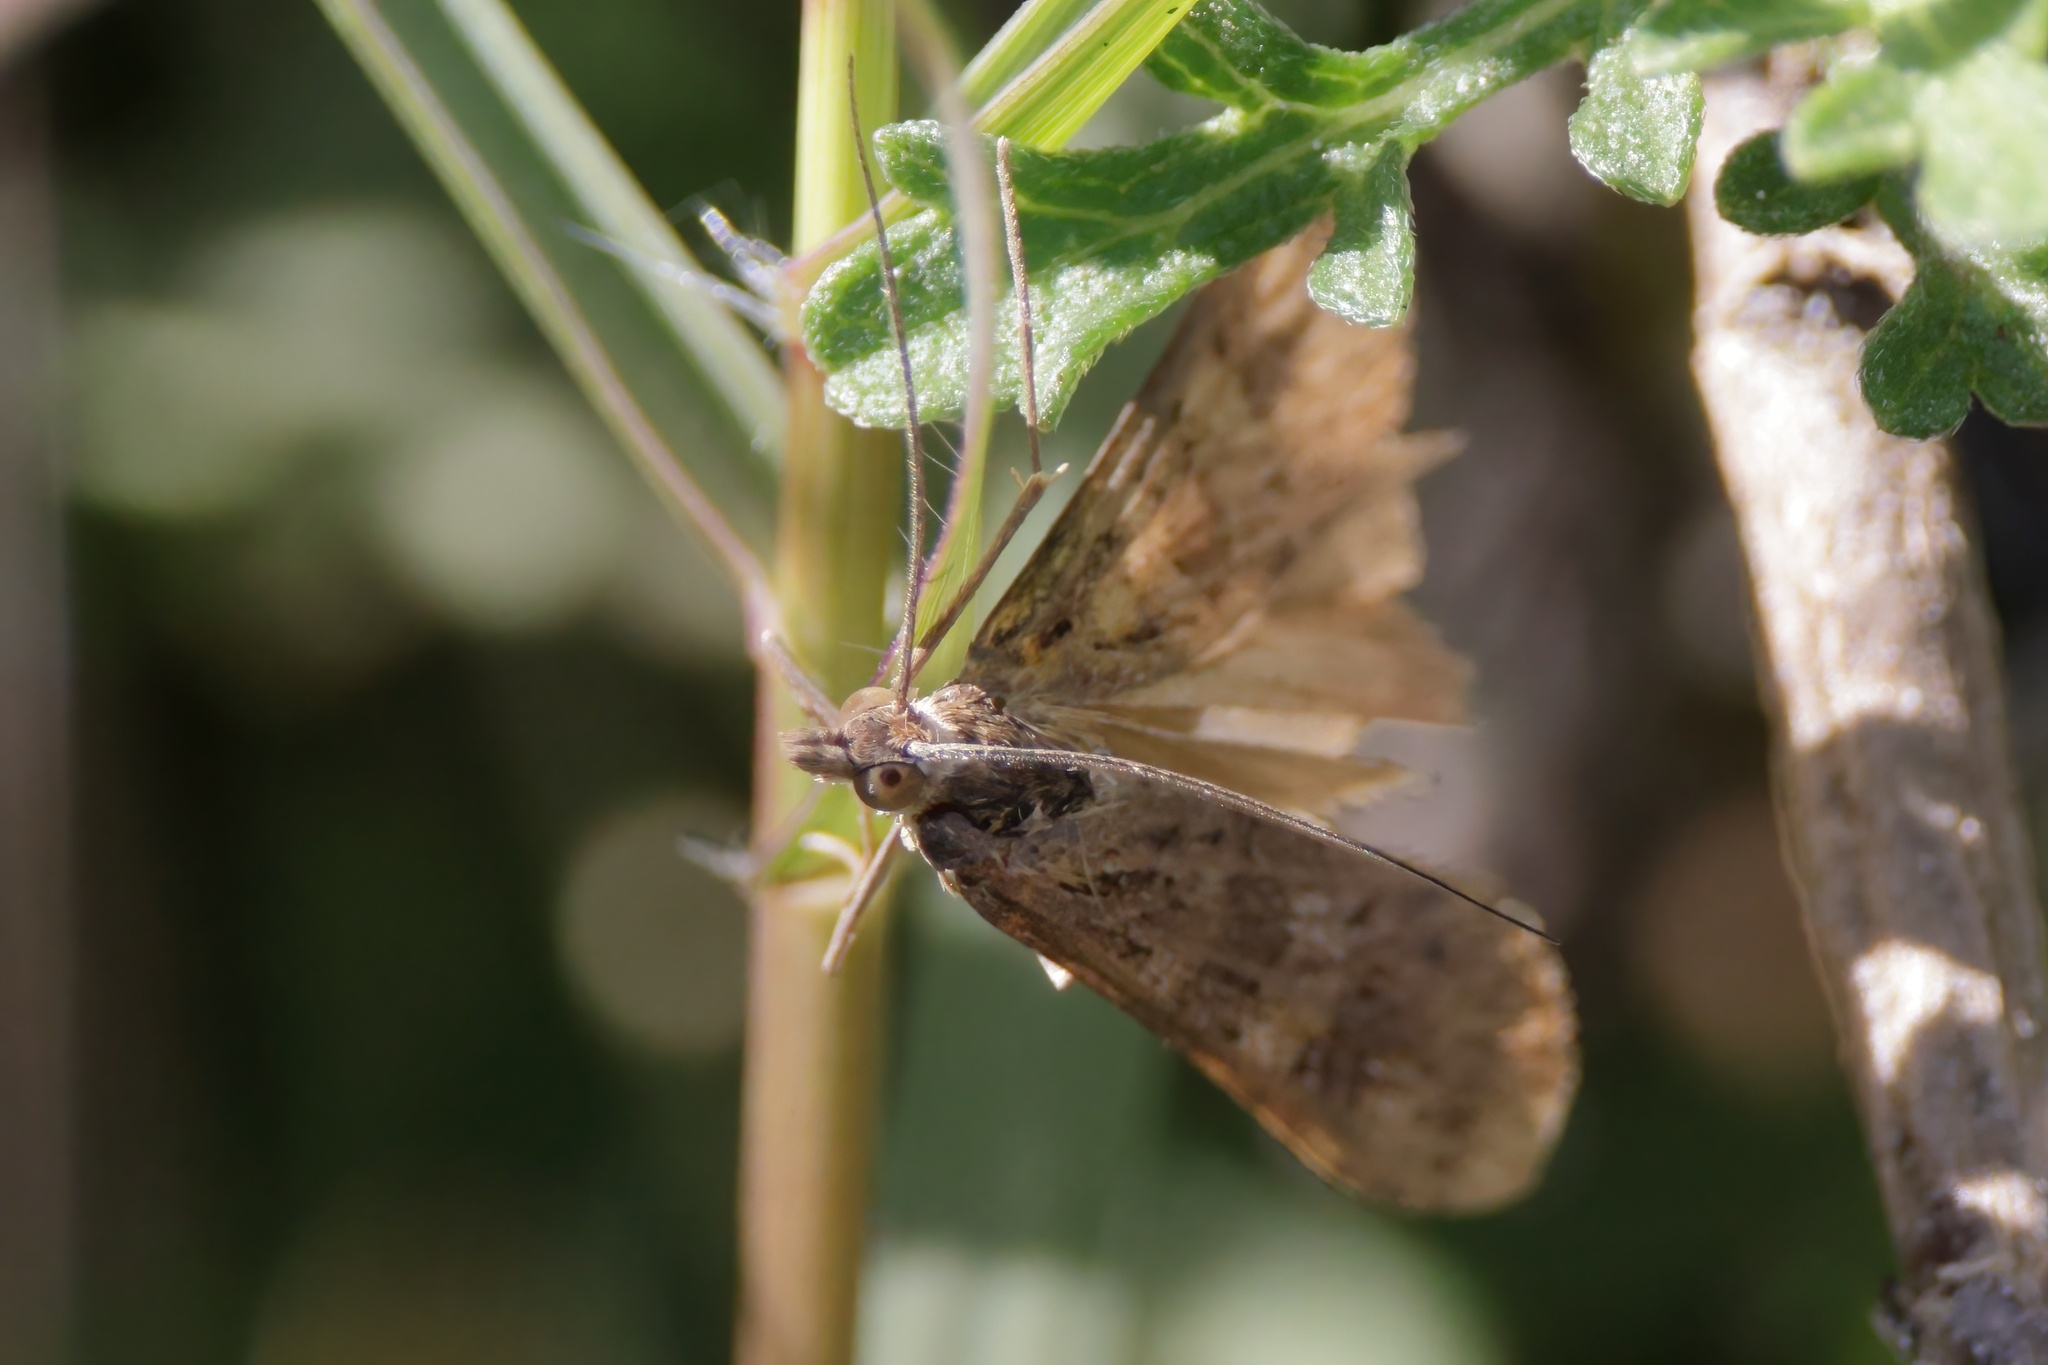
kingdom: Animalia
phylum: Arthropoda
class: Insecta
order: Lepidoptera
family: Crambidae
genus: Nomophila
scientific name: Nomophila nearctica
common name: American rush veneer
